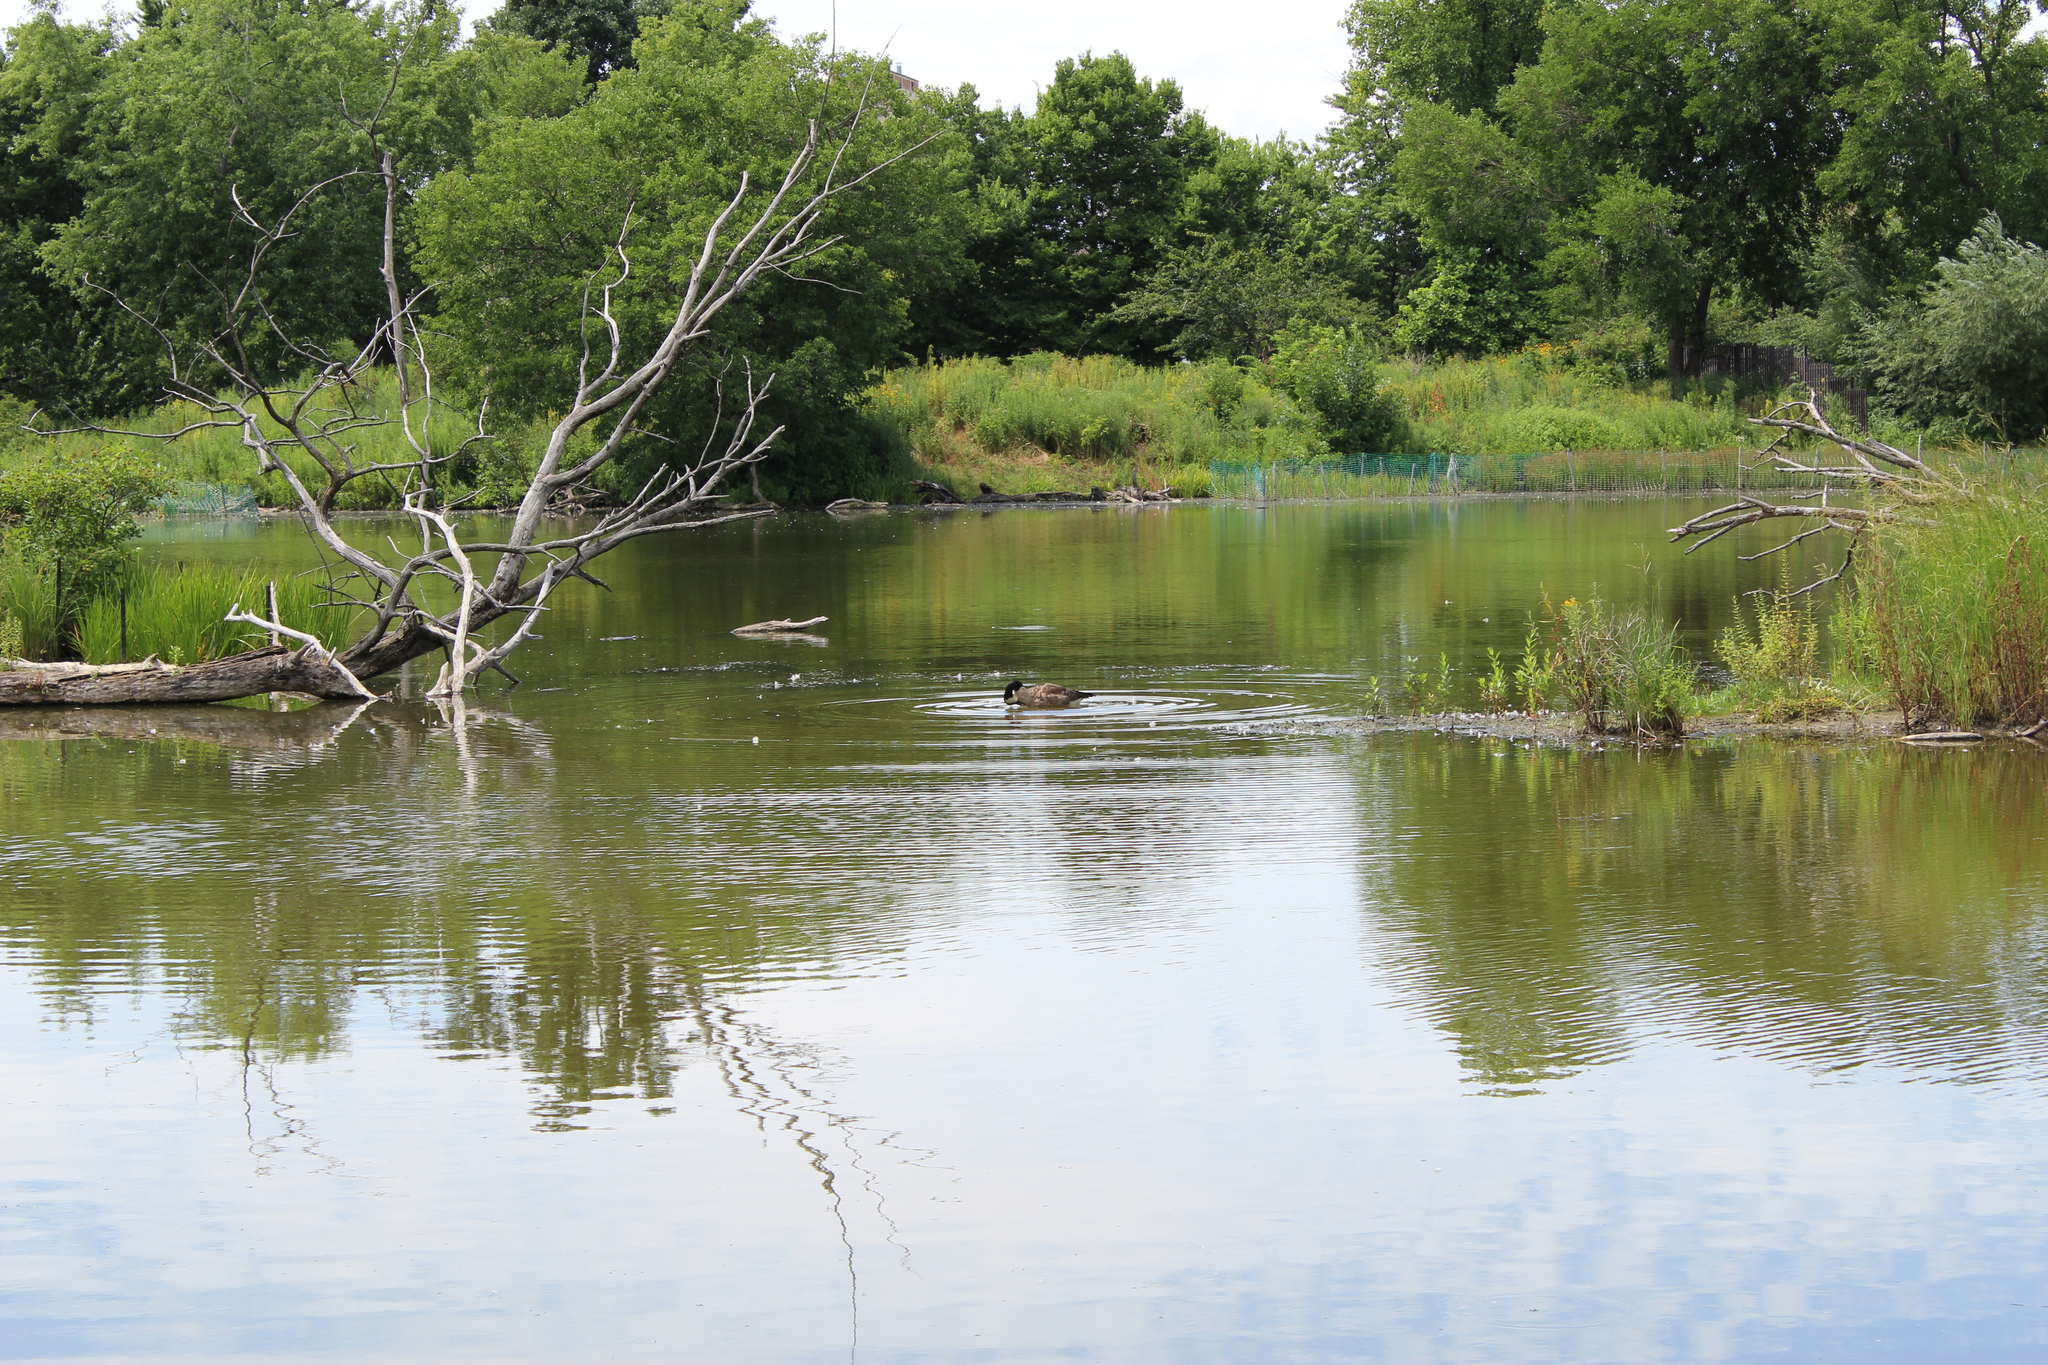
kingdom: Animalia
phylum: Chordata
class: Aves
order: Anseriformes
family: Anatidae
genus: Branta
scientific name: Branta canadensis
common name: Canada goose
